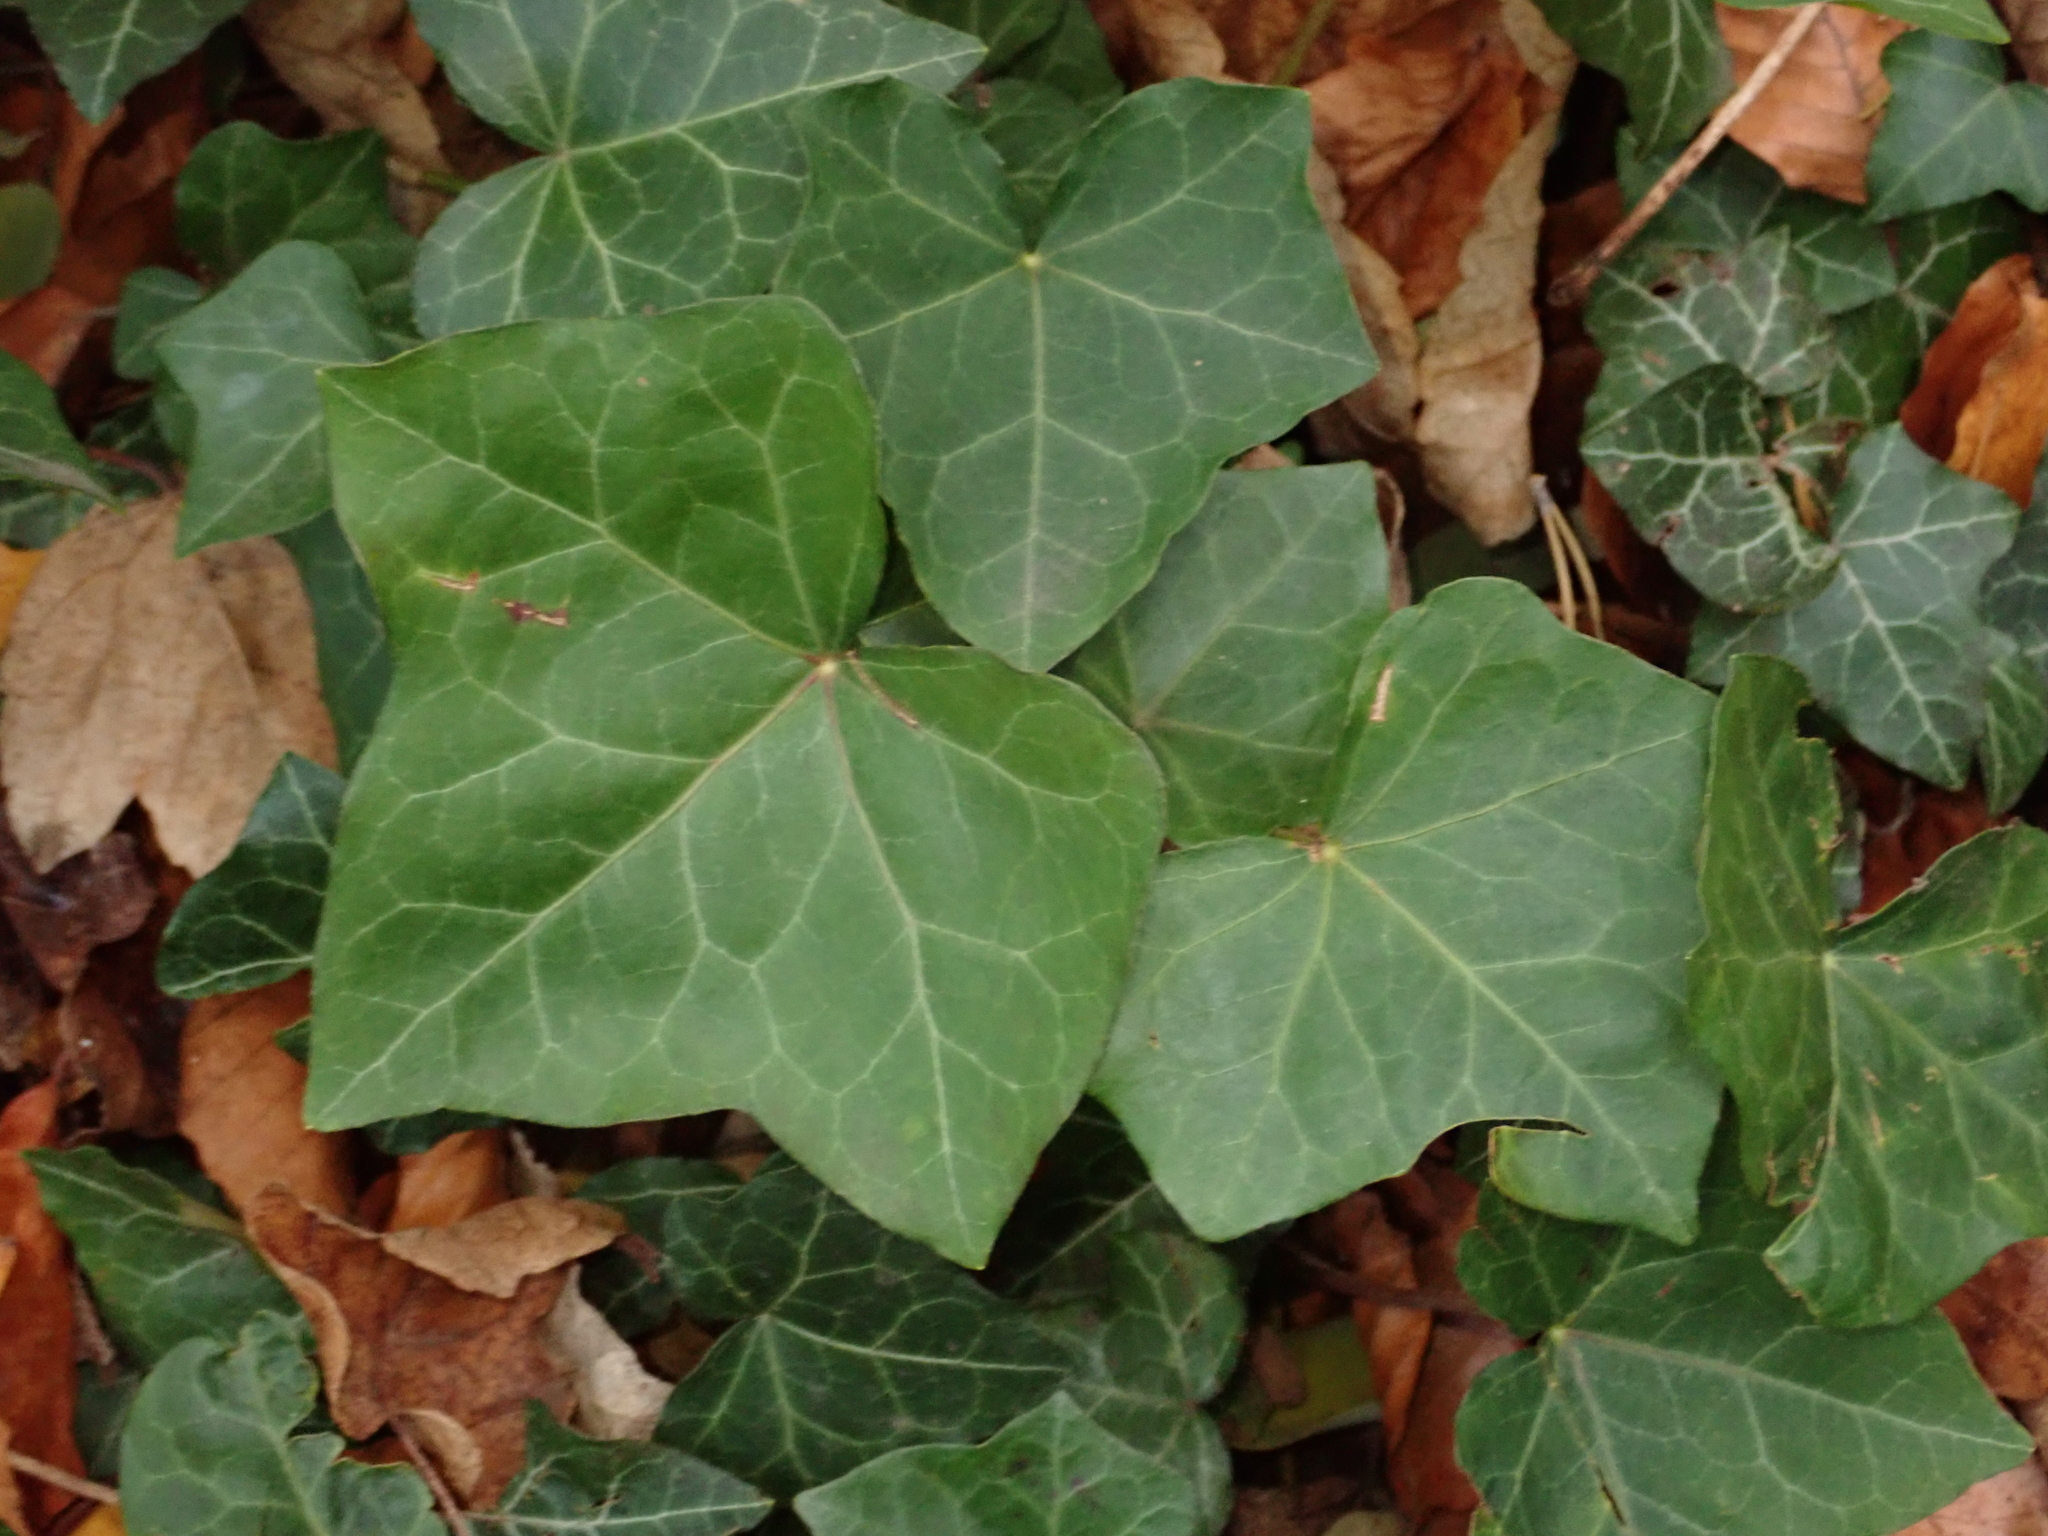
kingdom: Plantae
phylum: Tracheophyta
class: Magnoliopsida
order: Apiales
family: Araliaceae
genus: Hedera
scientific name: Hedera helix
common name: Ivy
